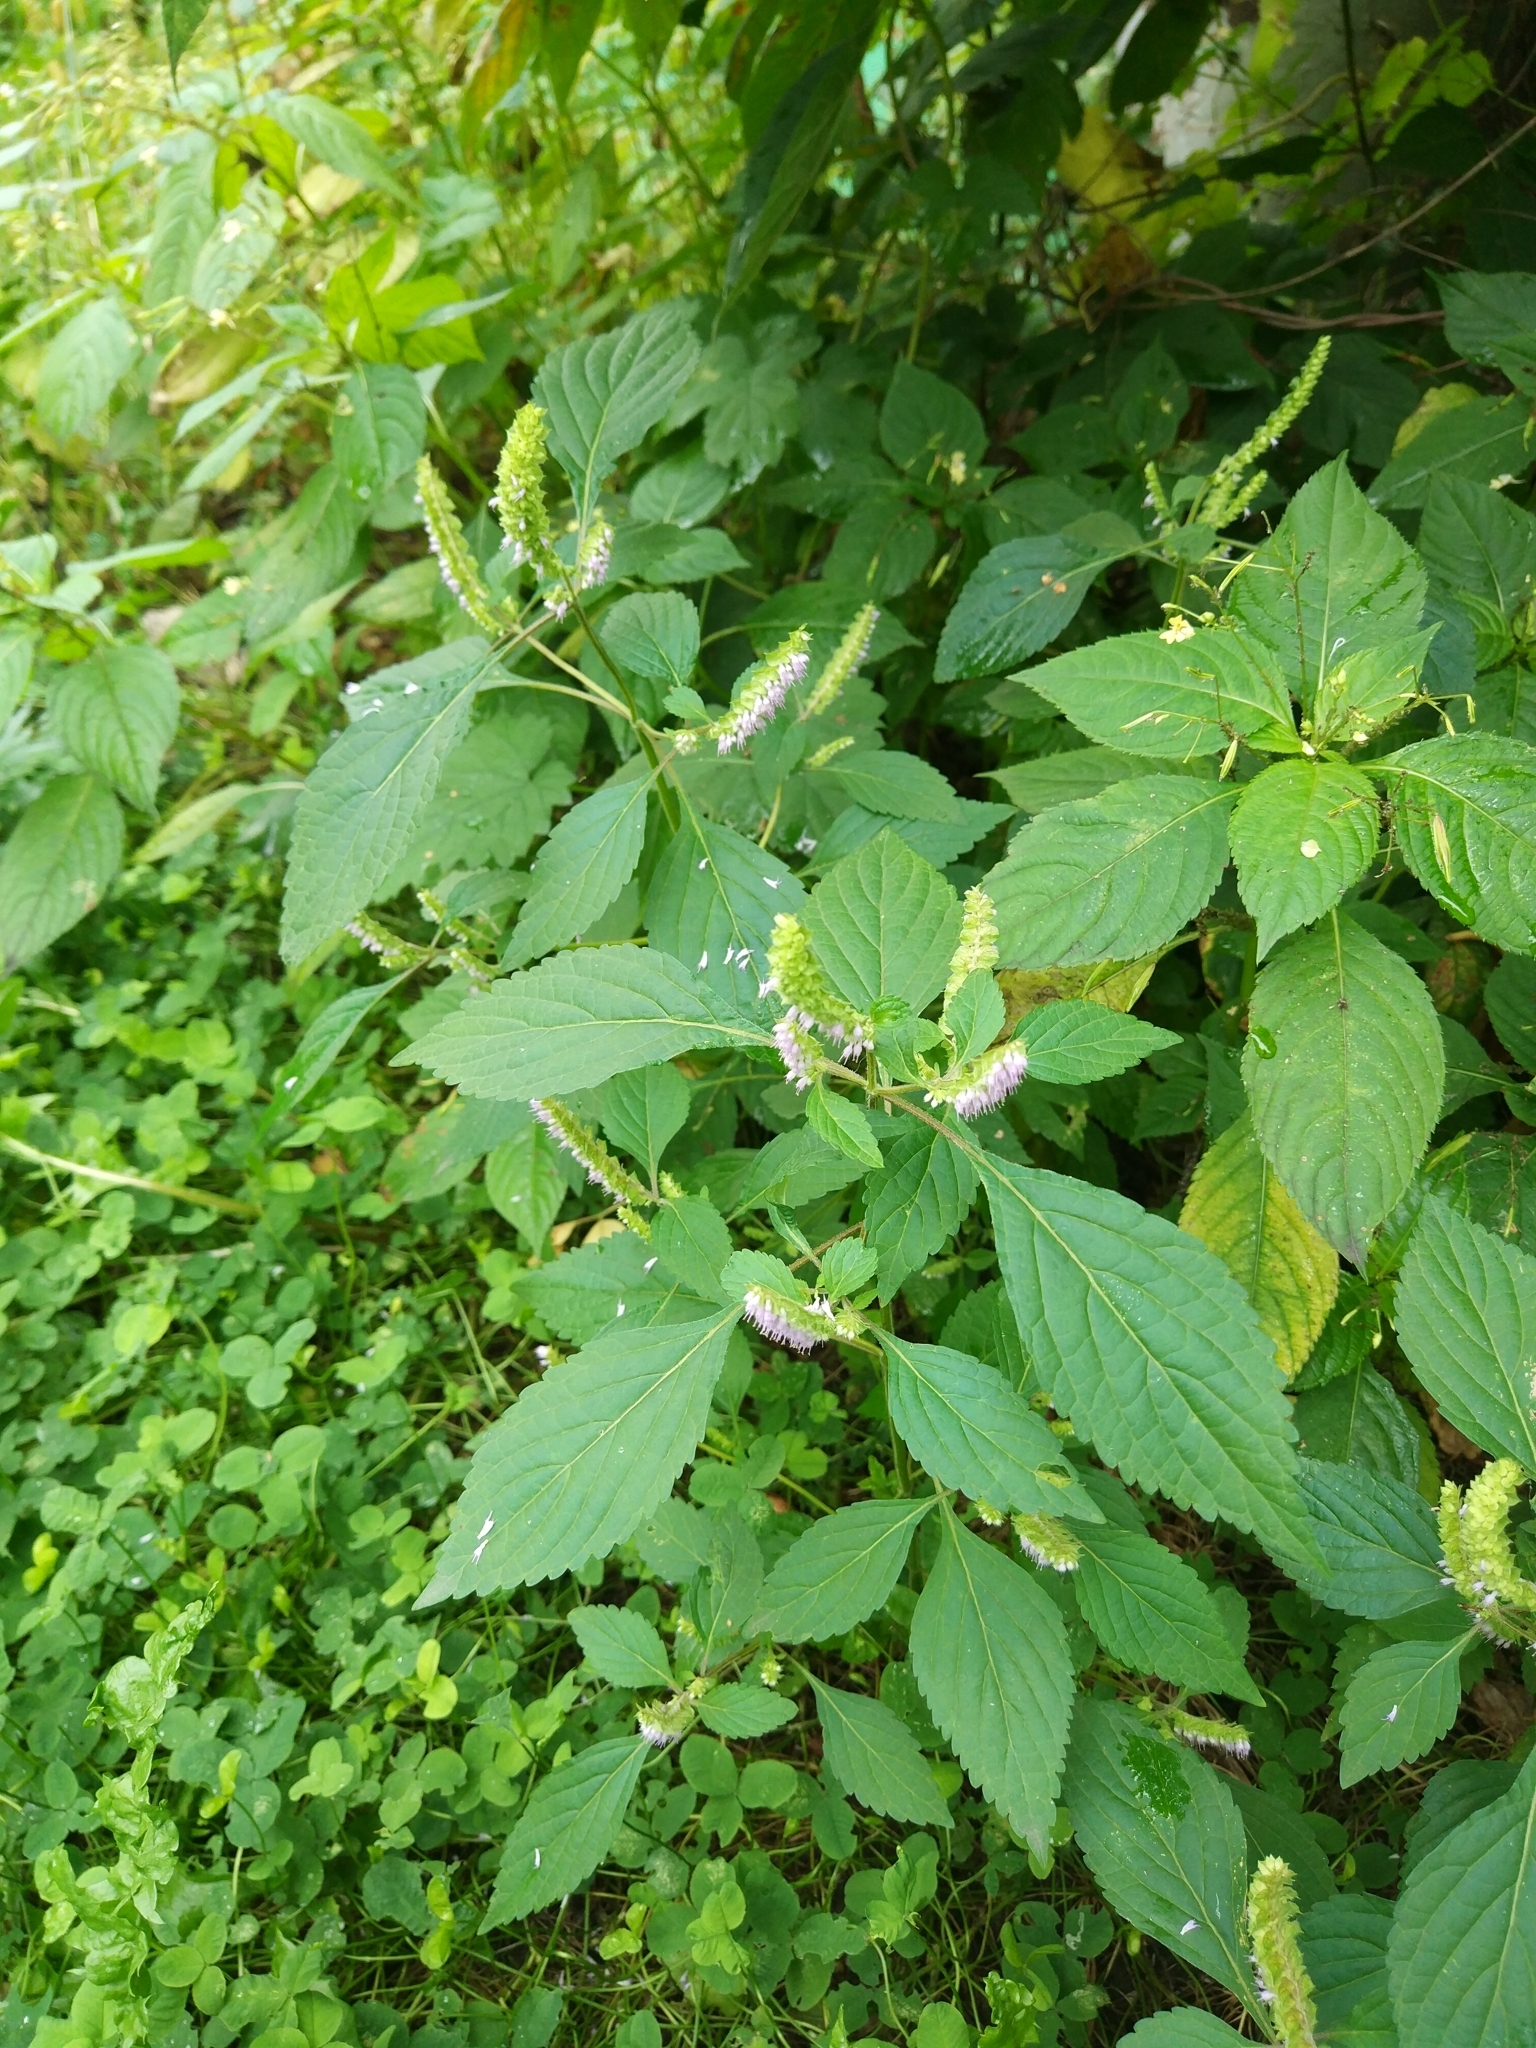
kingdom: Plantae
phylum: Tracheophyta
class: Magnoliopsida
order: Lamiales
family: Lamiaceae
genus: Elsholtzia
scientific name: Elsholtzia ciliata
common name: Ciliate elsholtzia
